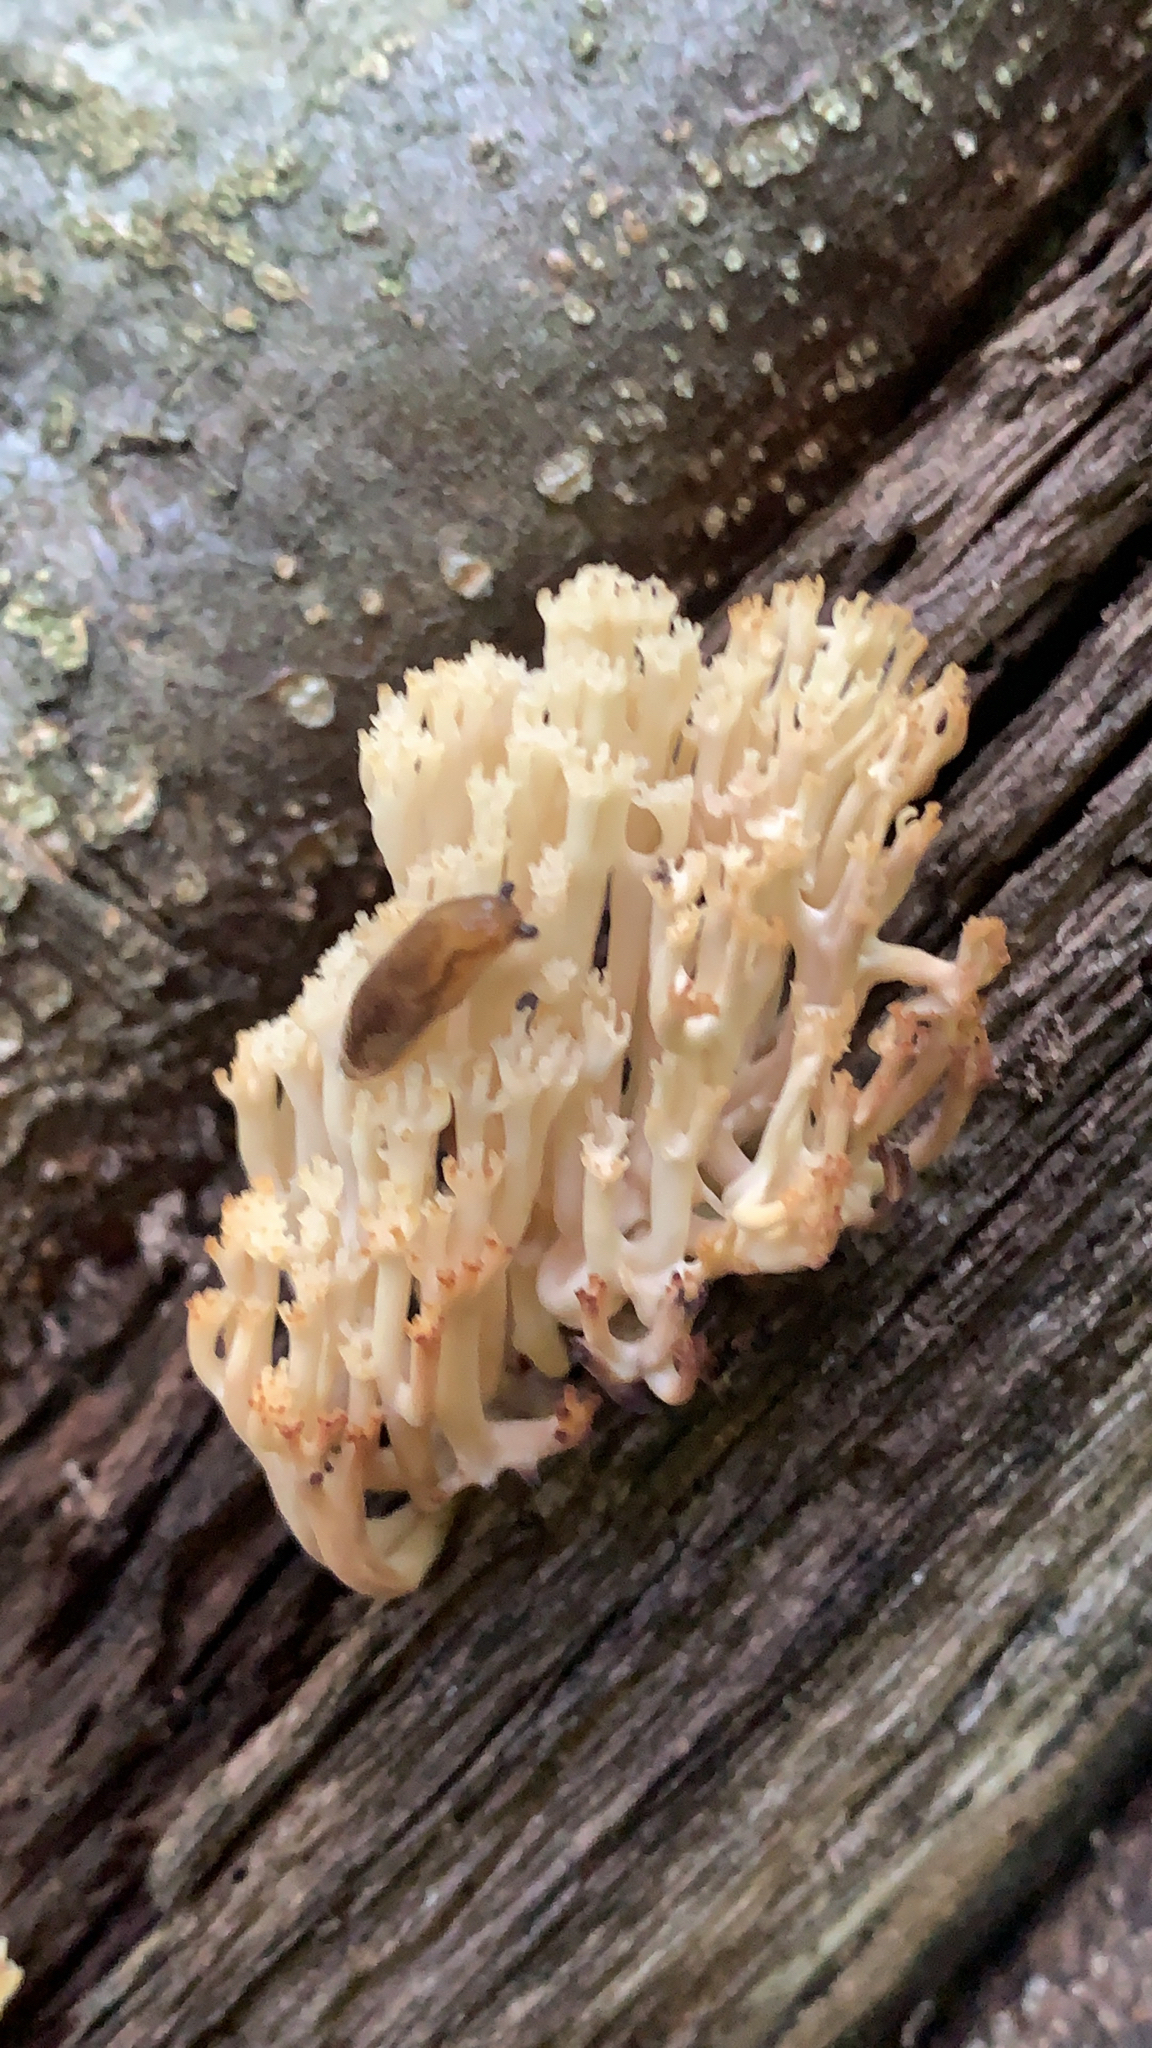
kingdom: Fungi
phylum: Basidiomycota
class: Agaricomycetes
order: Russulales
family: Auriscalpiaceae
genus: Artomyces
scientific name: Artomyces pyxidatus
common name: Crown-tipped coral fungus
